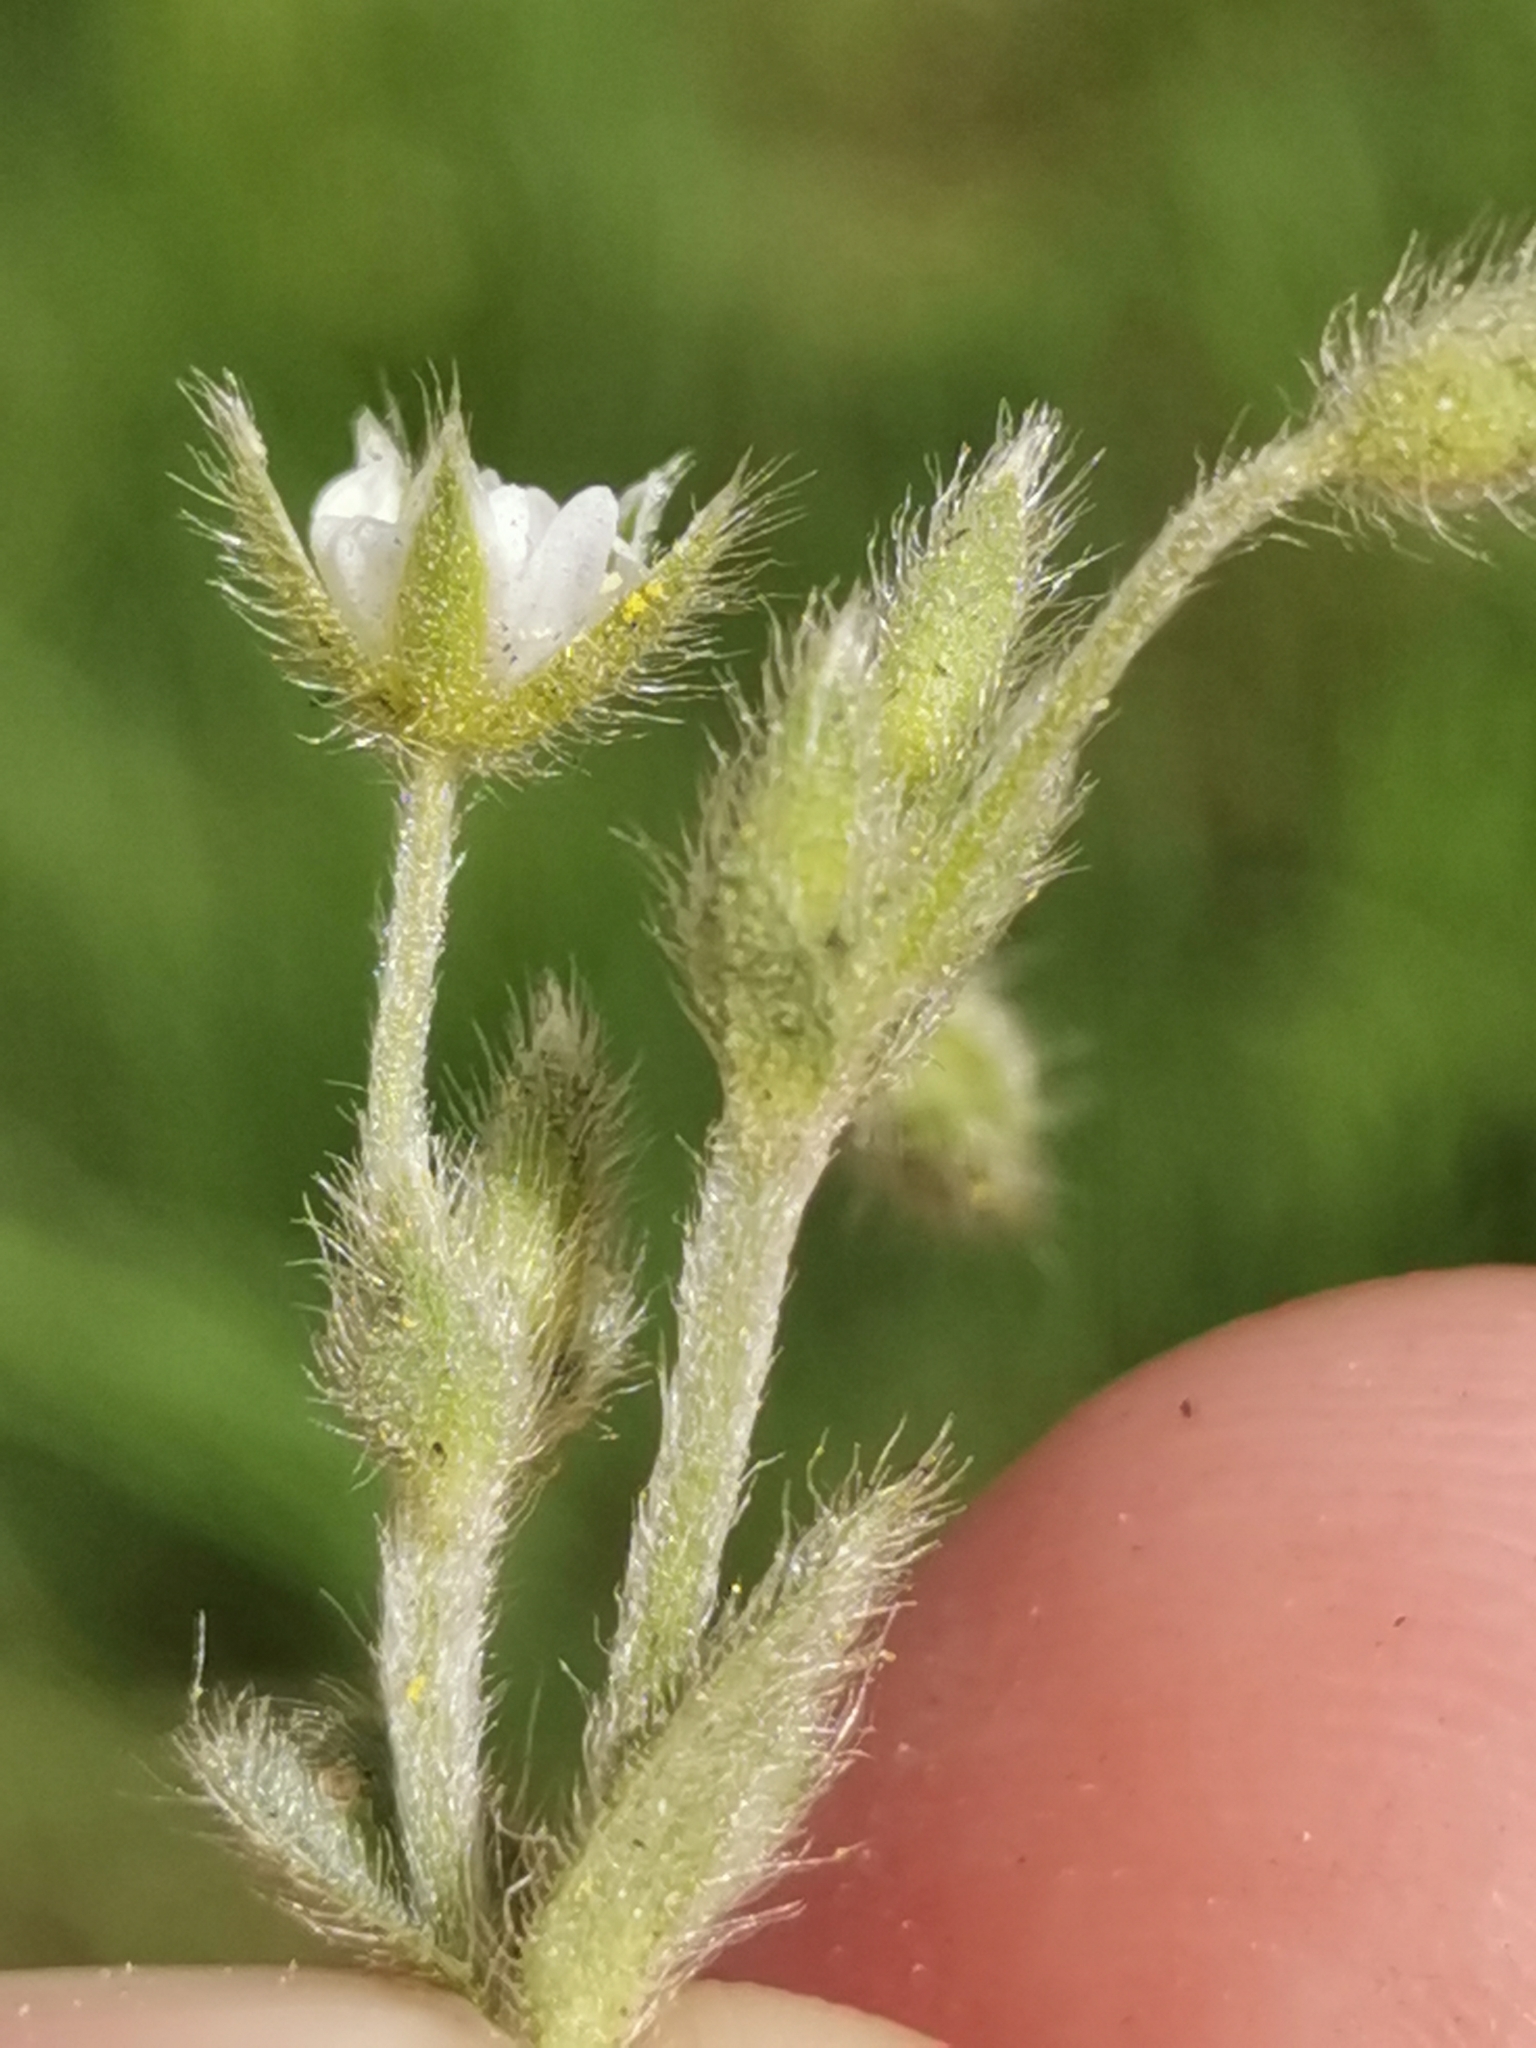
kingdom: Plantae
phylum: Tracheophyta
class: Magnoliopsida
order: Caryophyllales
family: Caryophyllaceae
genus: Cerastium
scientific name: Cerastium tenoreanum
